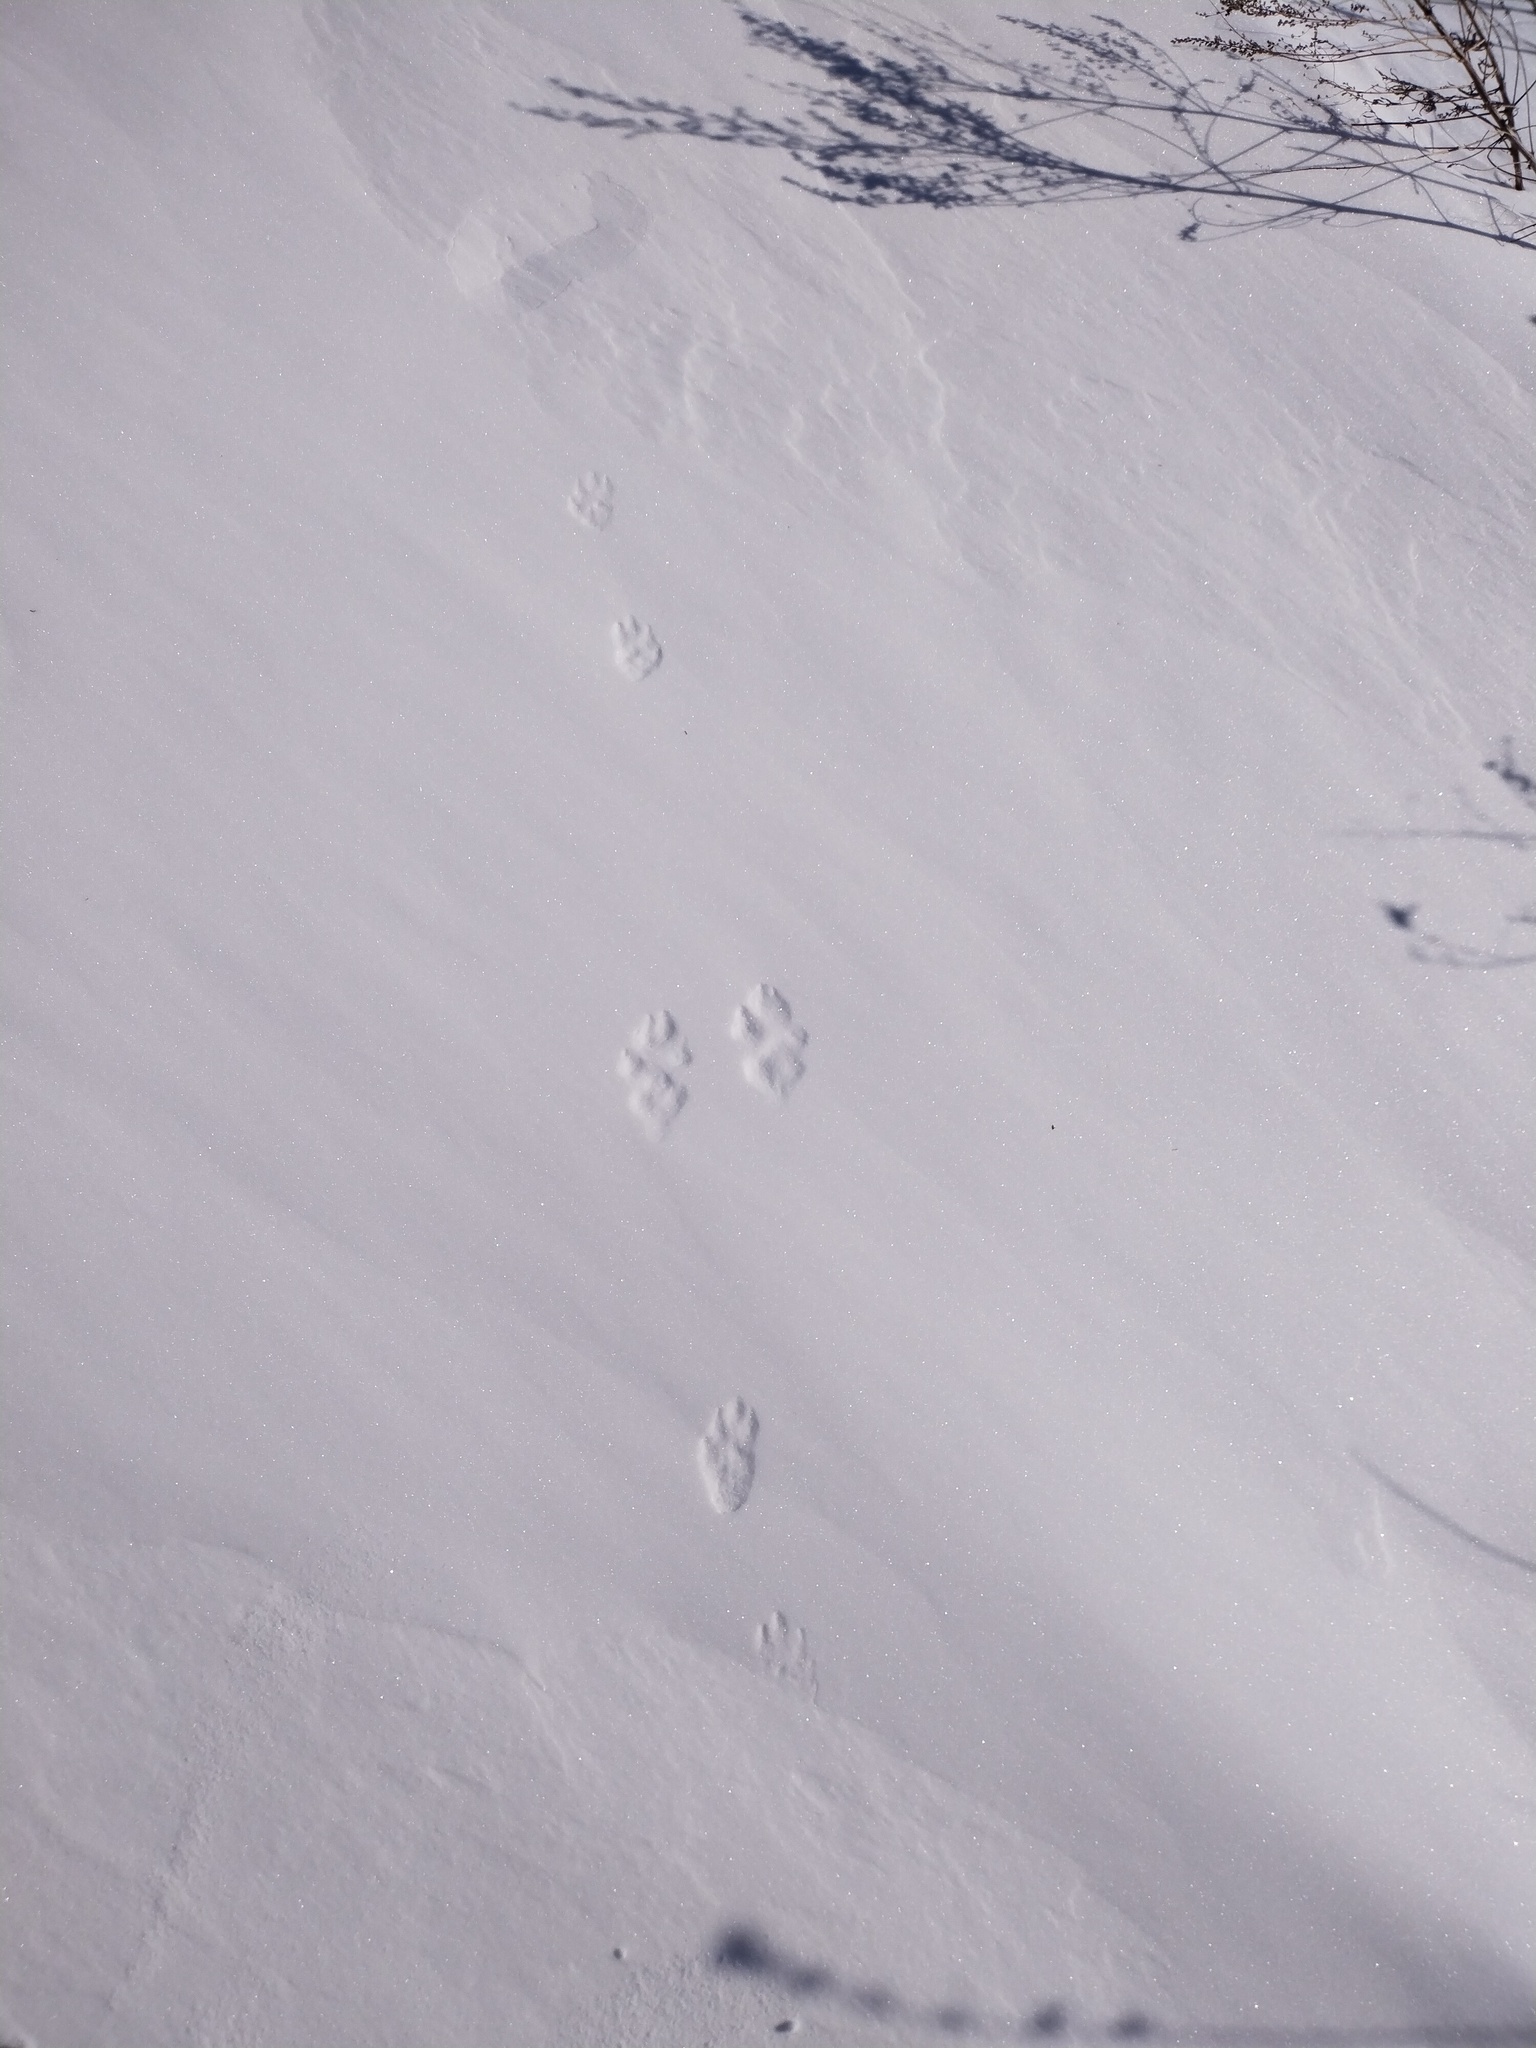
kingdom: Animalia
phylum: Chordata
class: Mammalia
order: Lagomorpha
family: Leporidae
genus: Lepus
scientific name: Lepus timidus
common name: Mountain hare
